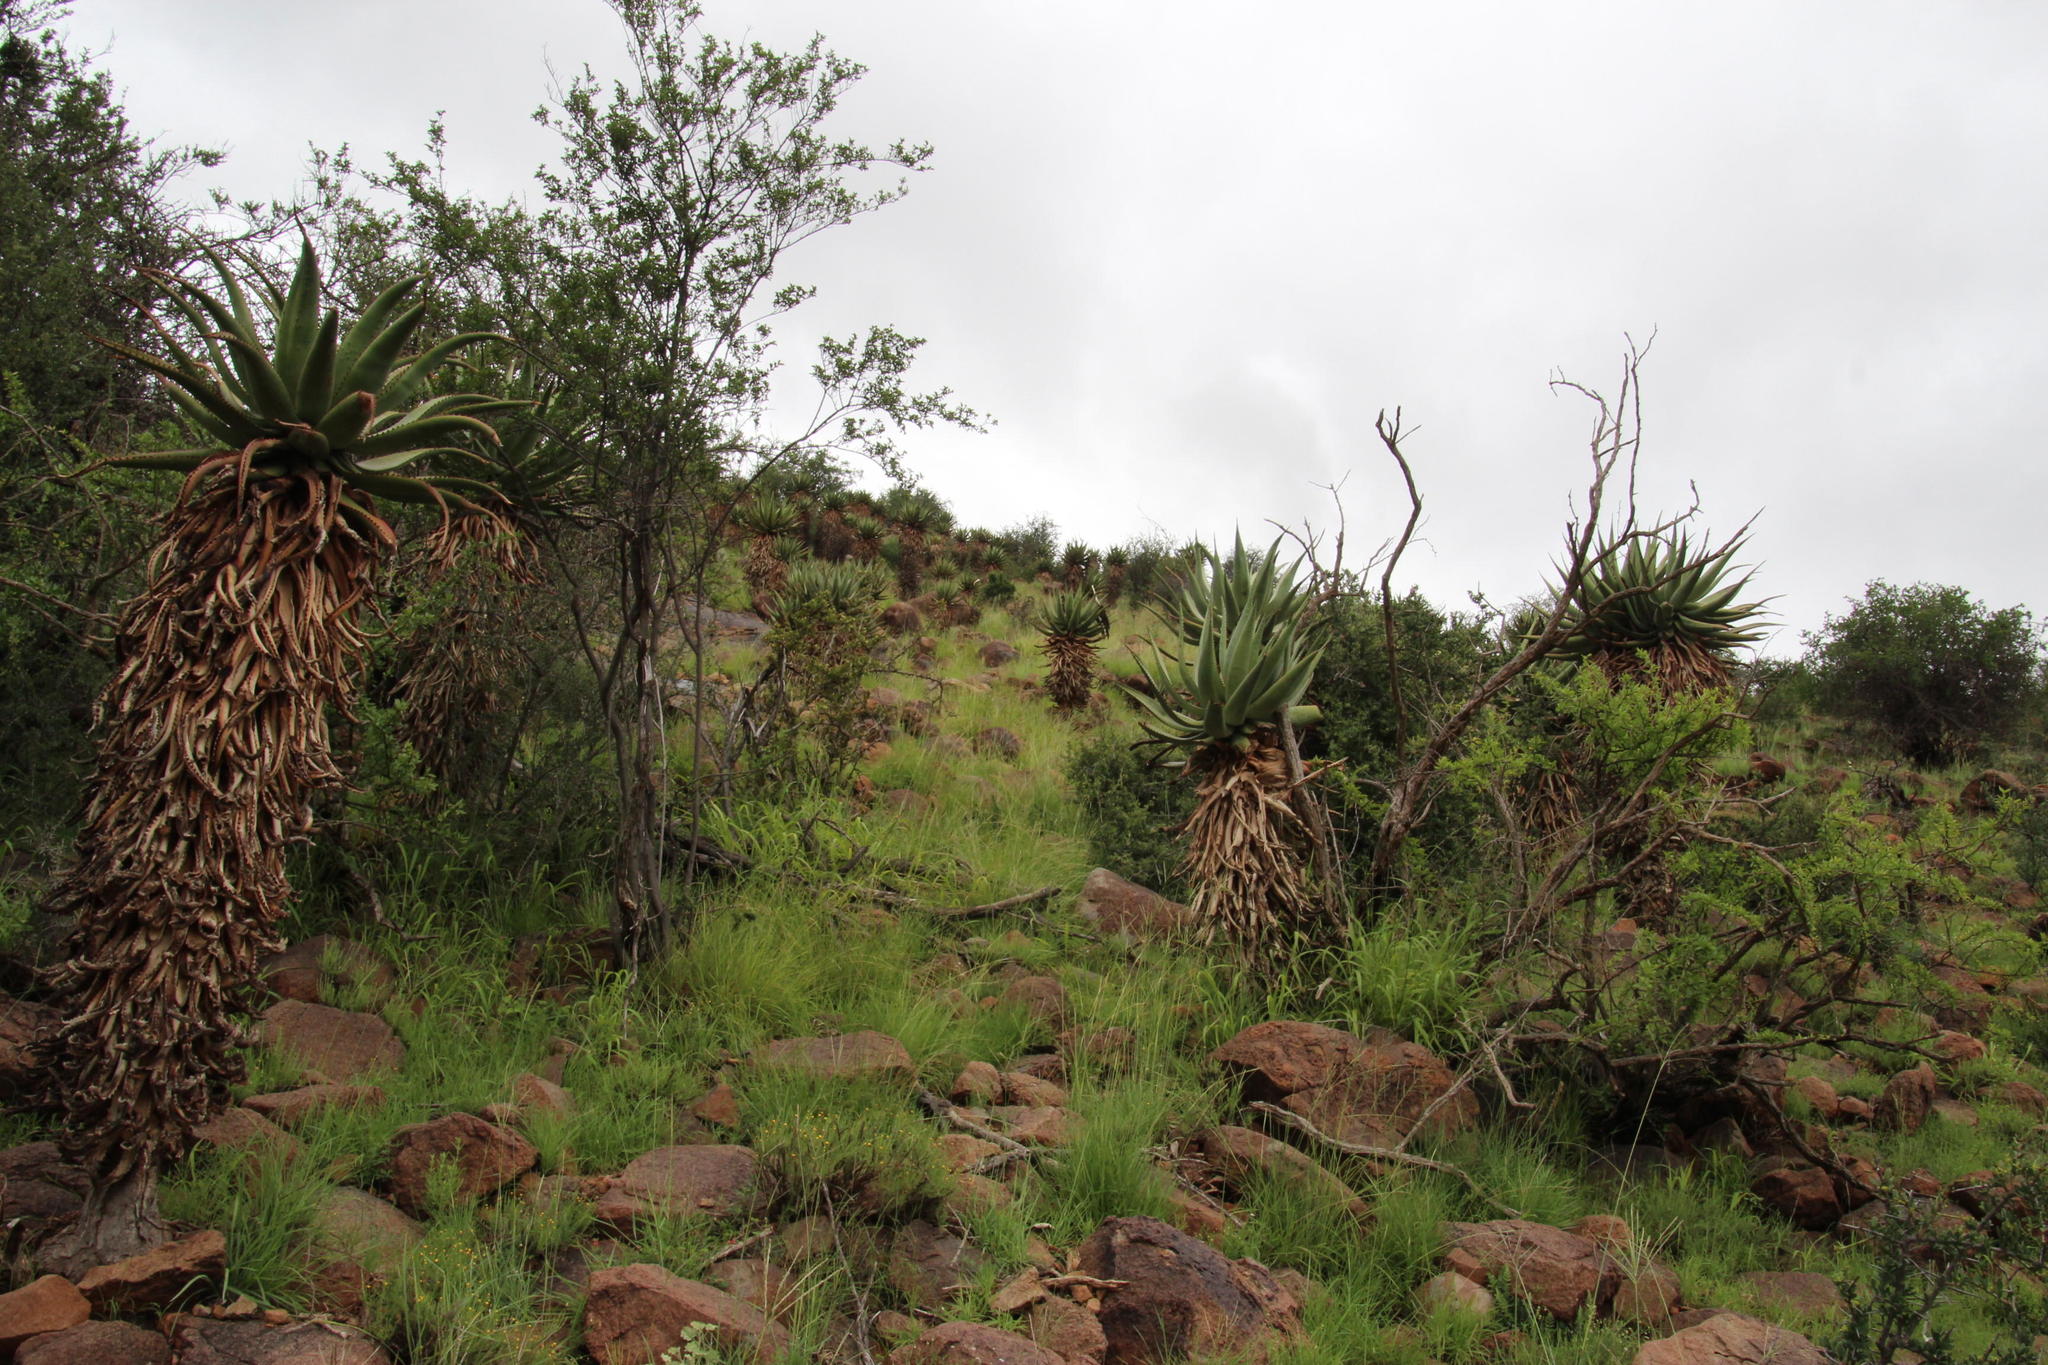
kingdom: Plantae
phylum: Tracheophyta
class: Liliopsida
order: Asparagales
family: Asphodelaceae
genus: Aloe
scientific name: Aloe ferox
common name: Bitter aloe
